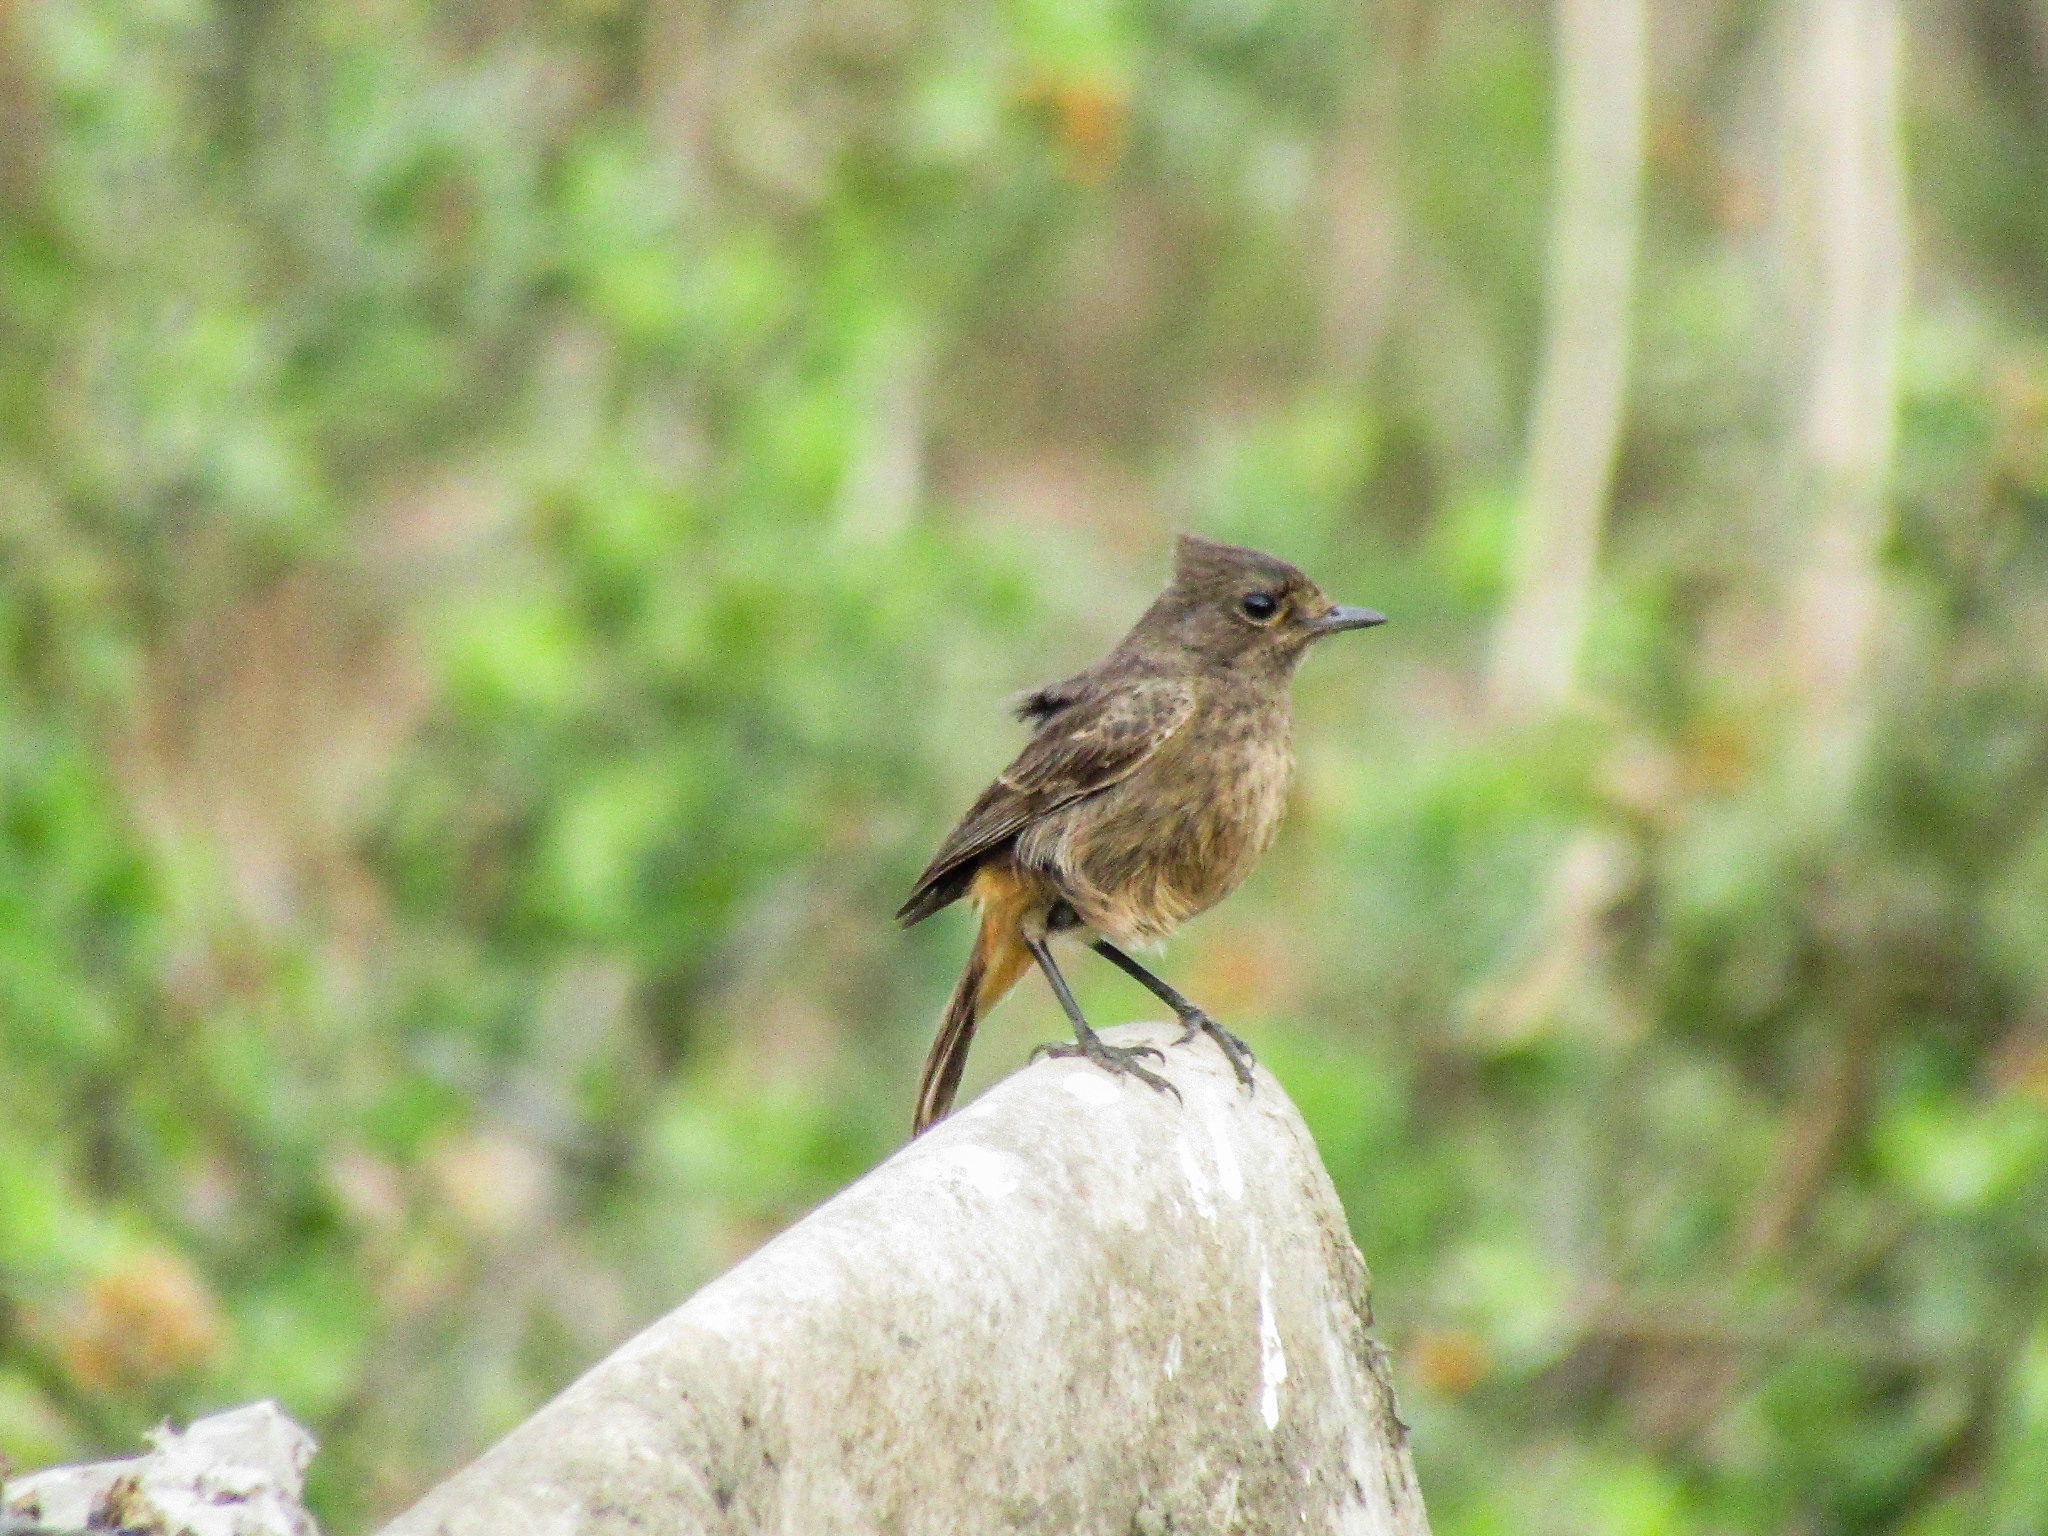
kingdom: Animalia
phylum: Chordata
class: Aves
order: Passeriformes
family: Muscicapidae
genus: Saxicola
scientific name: Saxicola caprata
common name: Pied bush chat
